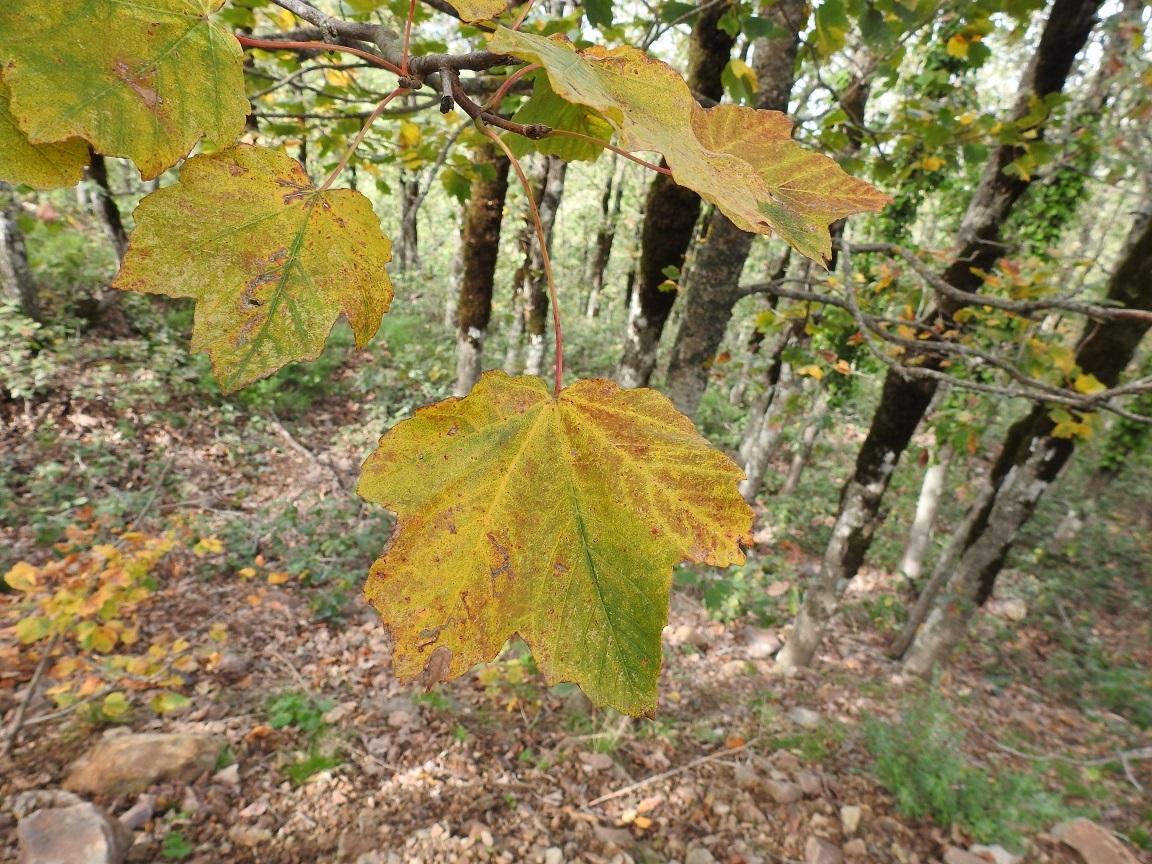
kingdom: Plantae
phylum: Tracheophyta
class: Magnoliopsida
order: Sapindales
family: Sapindaceae
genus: Acer
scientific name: Acer opalus
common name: Italian maple
